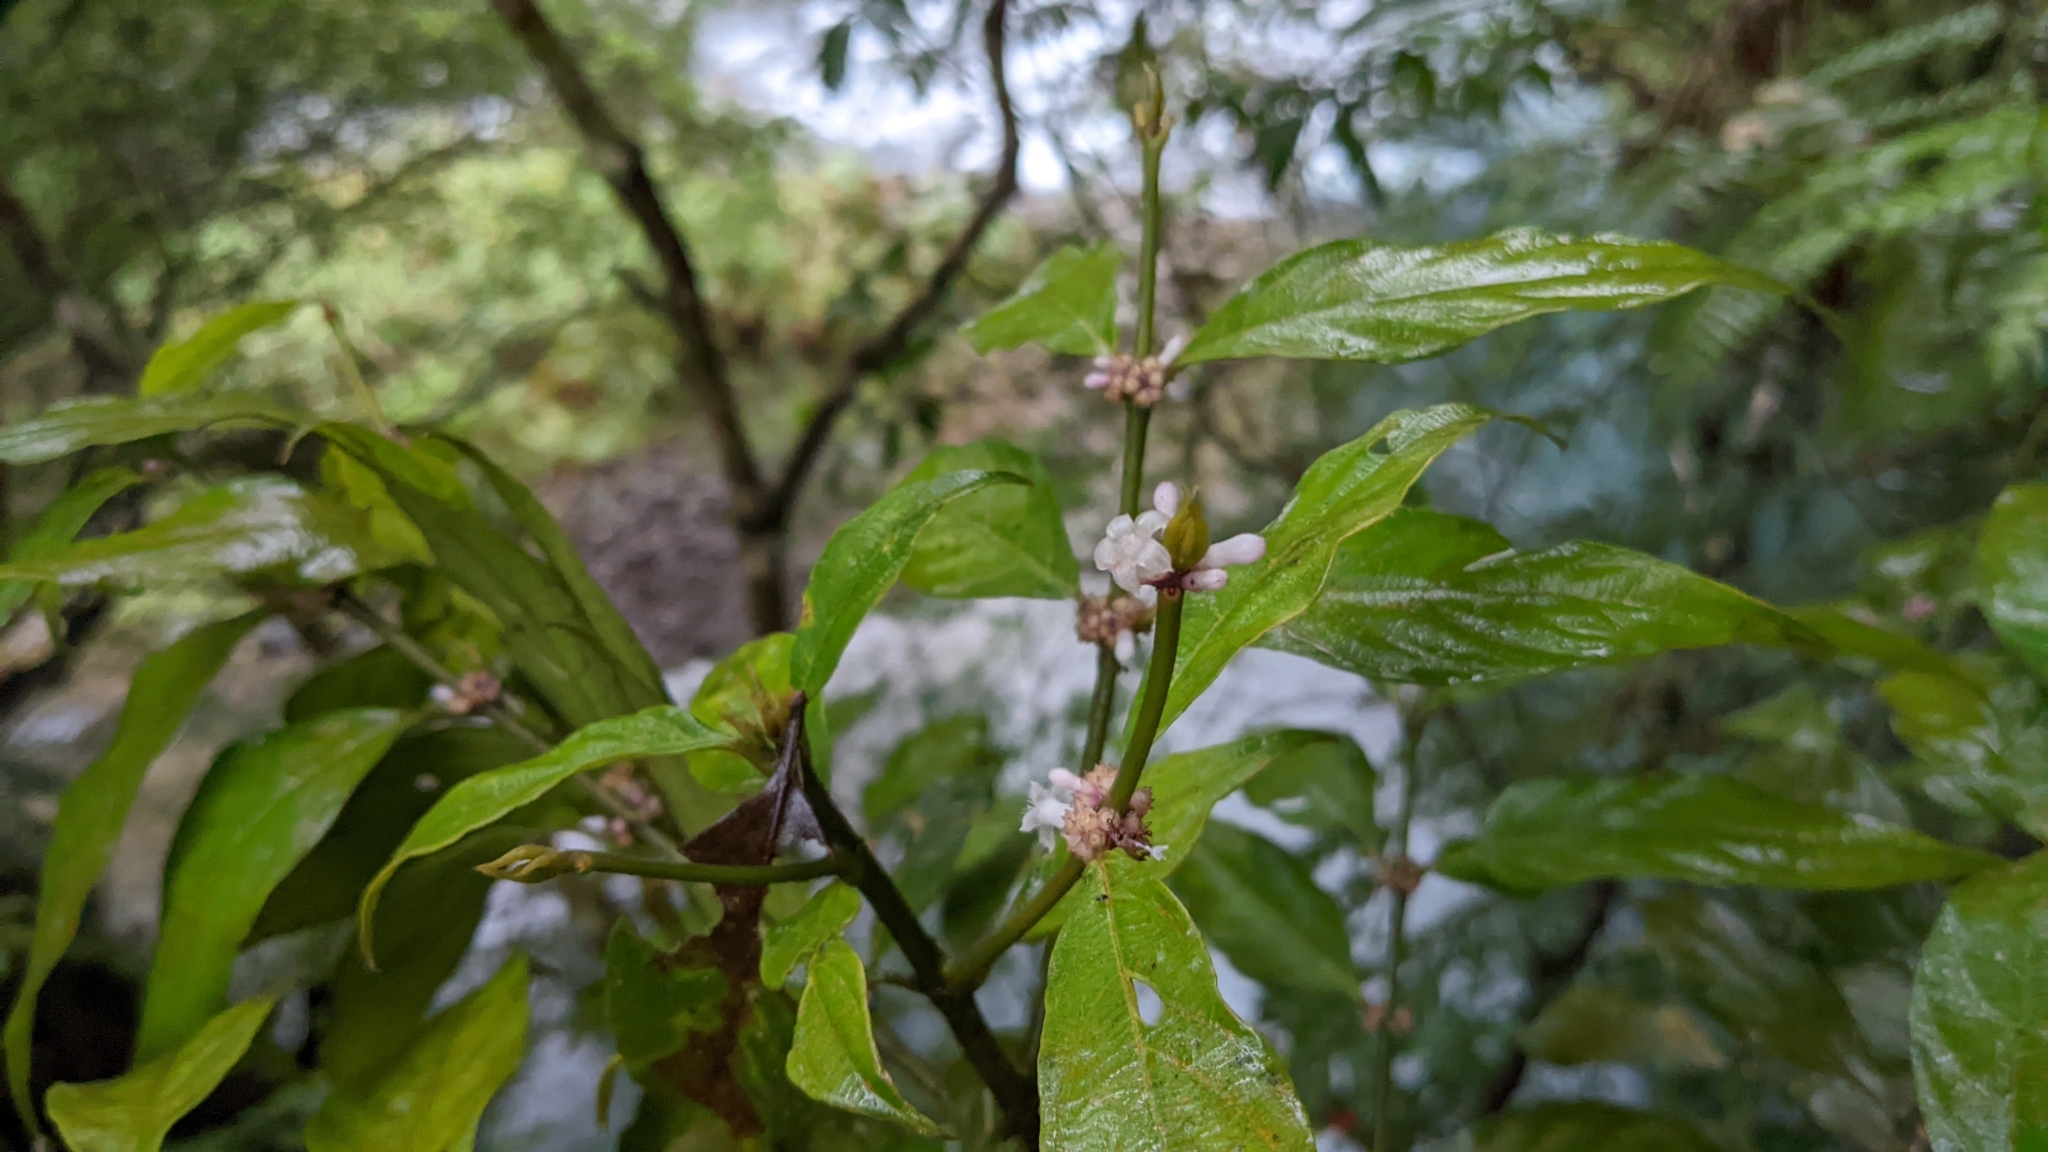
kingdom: Plantae
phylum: Tracheophyta
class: Magnoliopsida
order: Gentianales
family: Rubiaceae
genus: Lasianthus
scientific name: Lasianthus fordii
